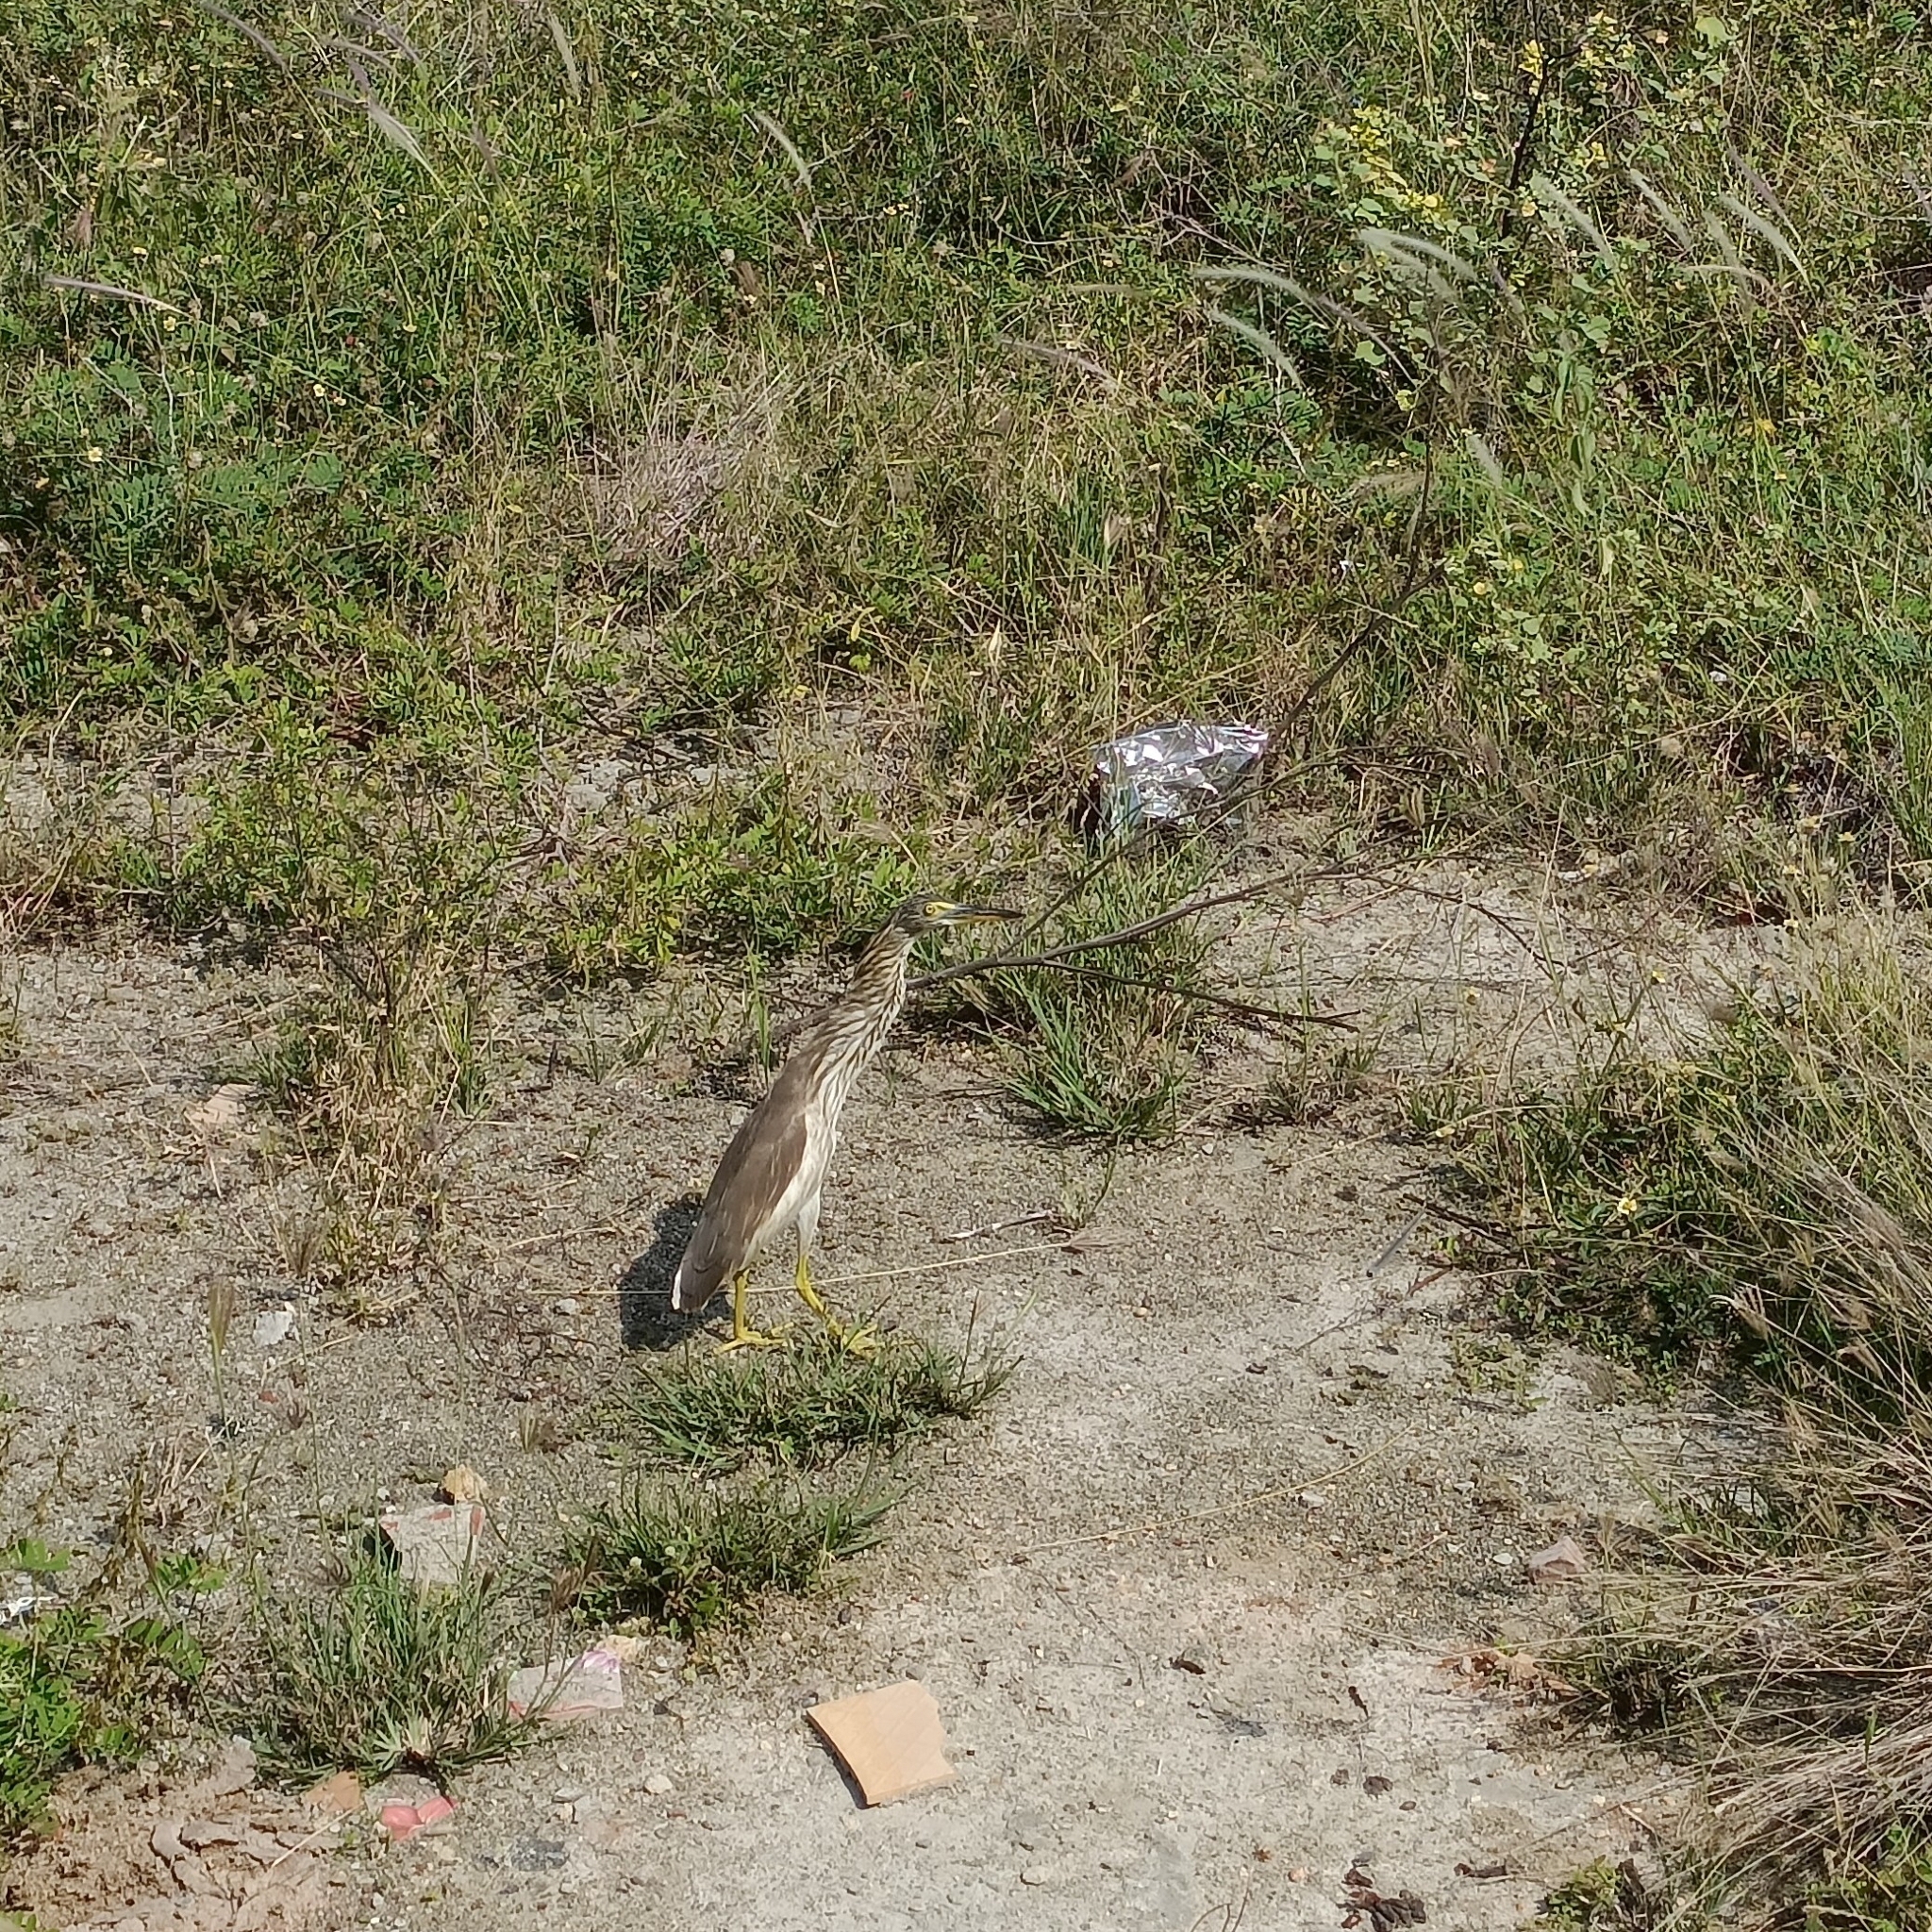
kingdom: Animalia
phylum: Chordata
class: Aves
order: Pelecaniformes
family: Ardeidae
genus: Ardeola
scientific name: Ardeola grayii
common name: Indian pond heron
